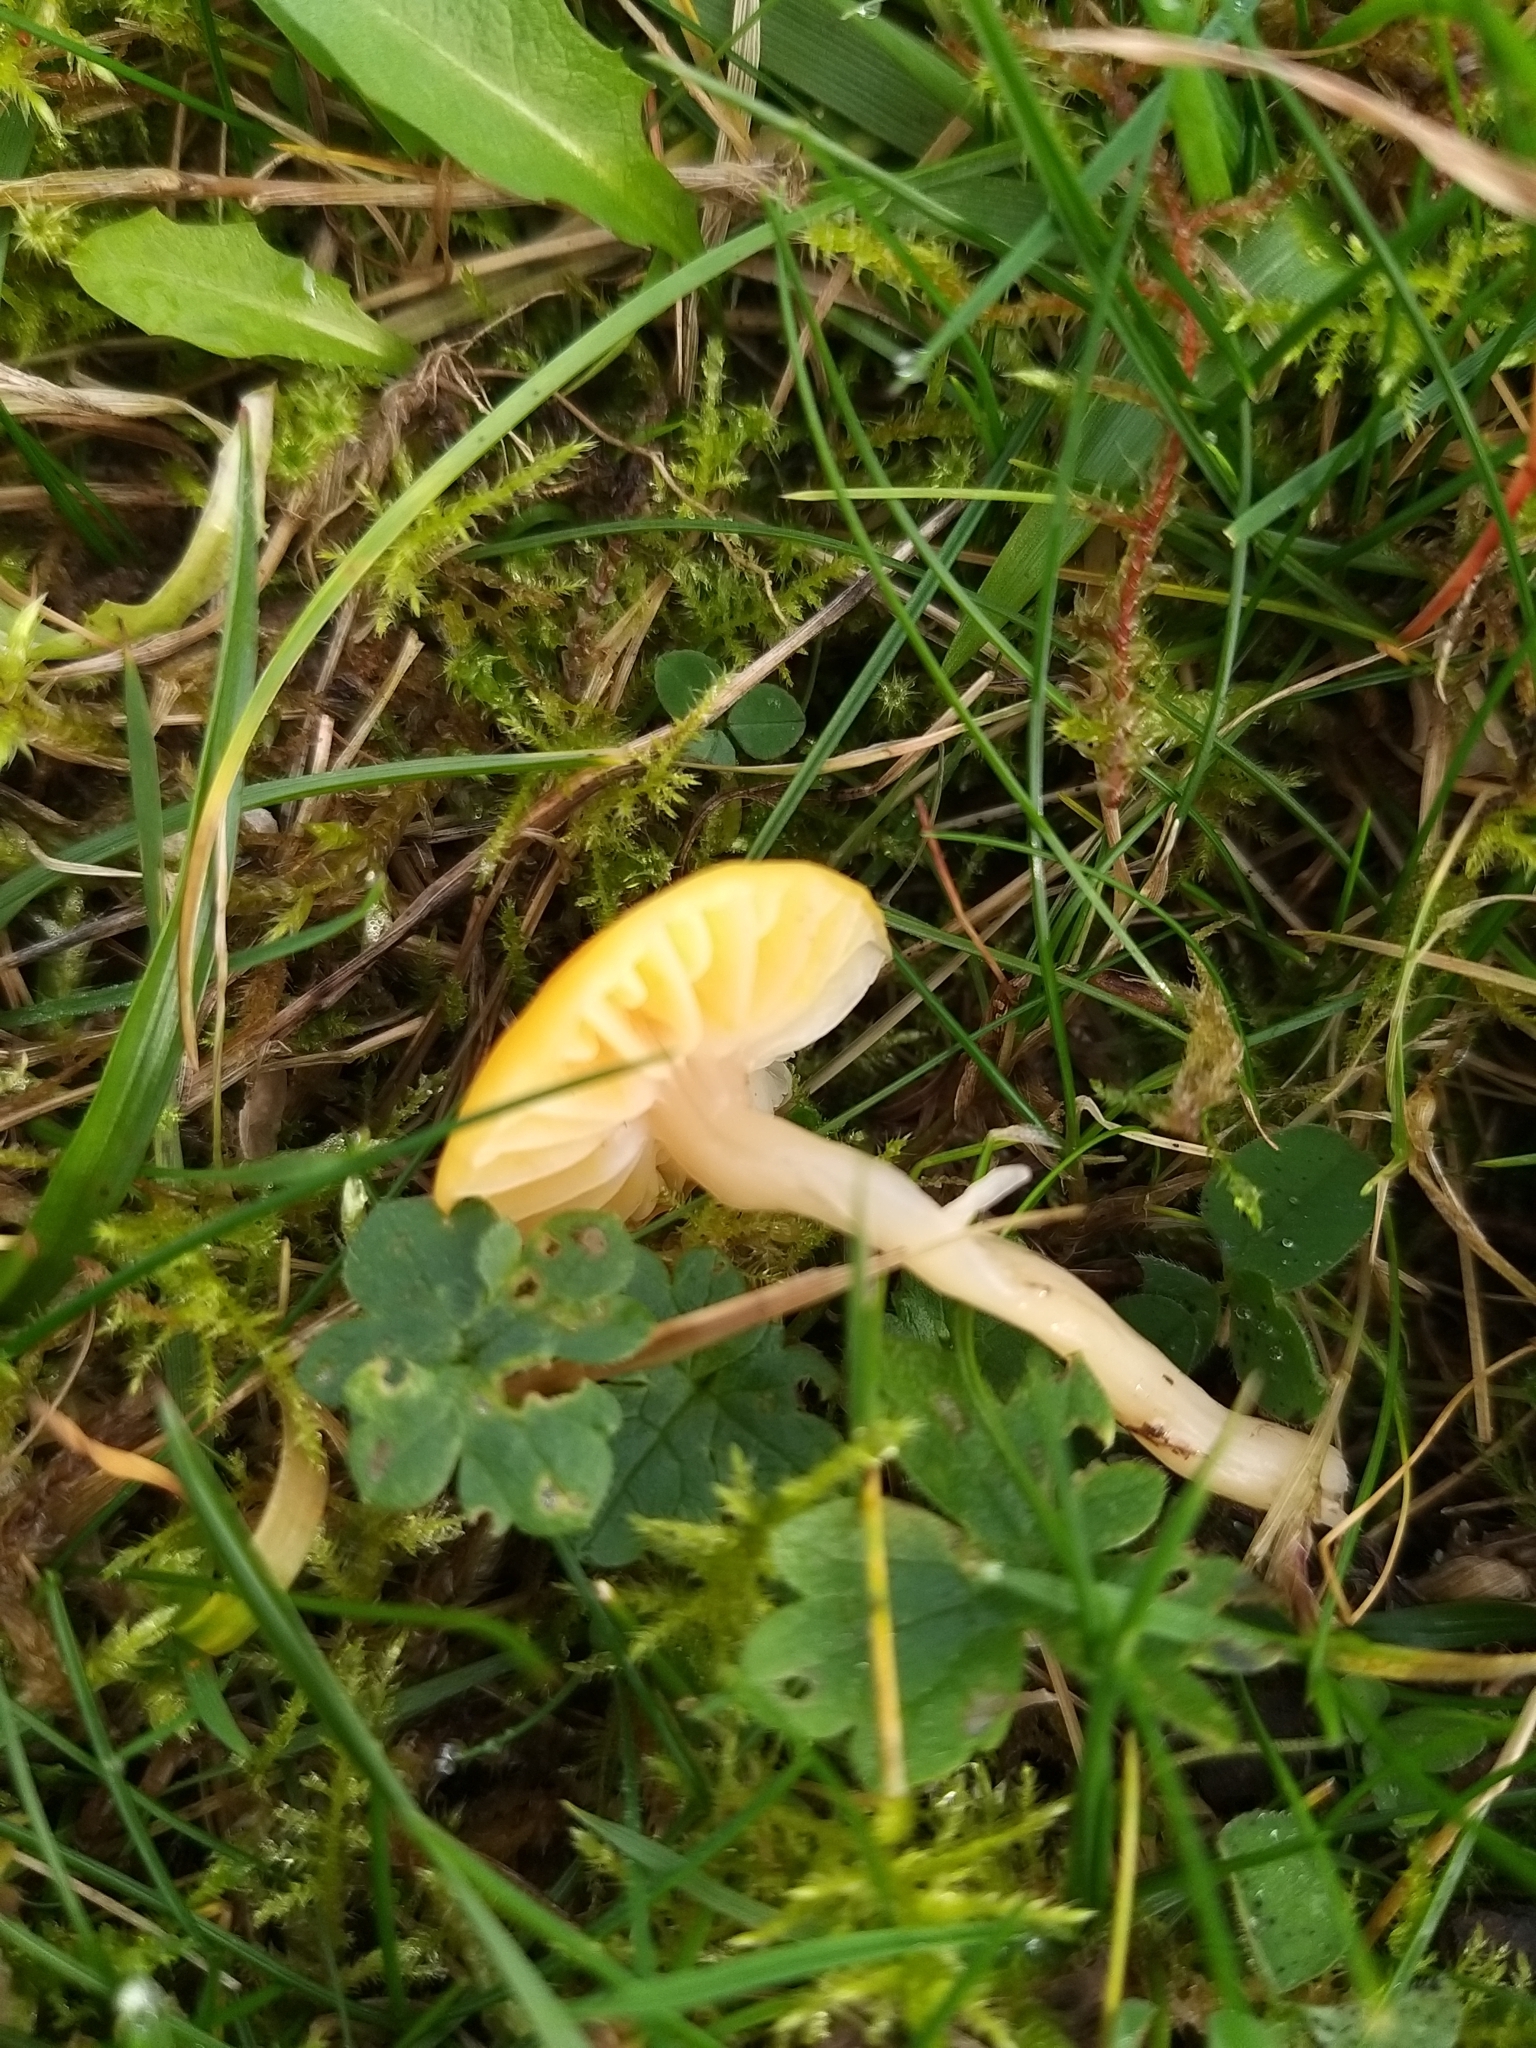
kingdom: Fungi
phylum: Basidiomycota
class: Agaricomycetes
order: Agaricales
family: Hygrophoraceae
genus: Gliophorus
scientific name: Gliophorus psittacinus
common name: Parrot wax-cap
